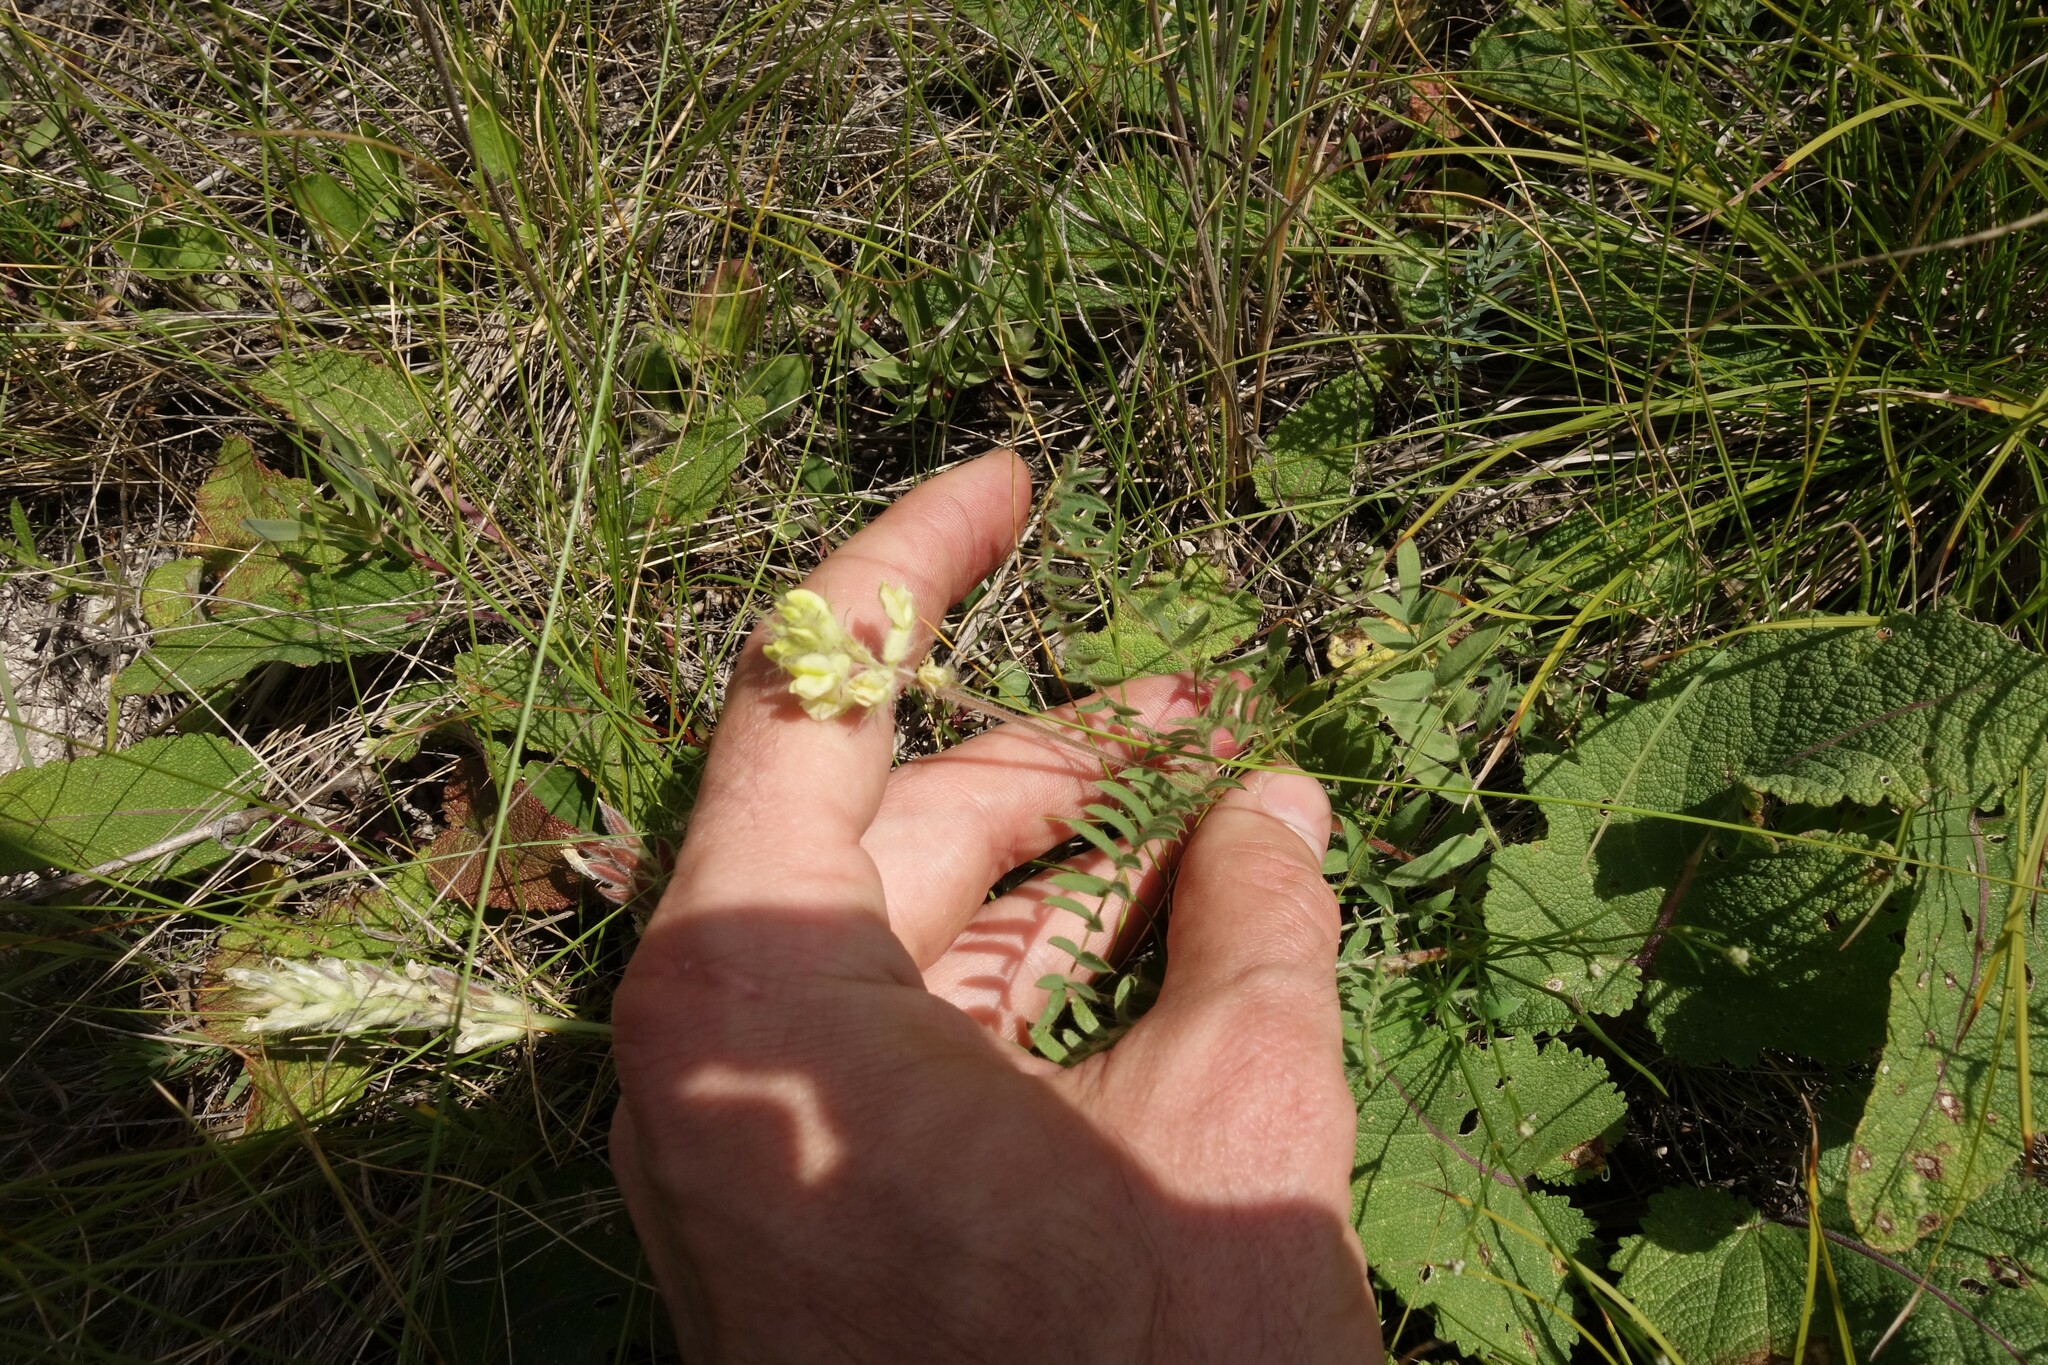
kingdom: Plantae
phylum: Tracheophyta
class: Magnoliopsida
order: Fabales
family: Fabaceae
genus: Oxytropis
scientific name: Oxytropis pilosa
